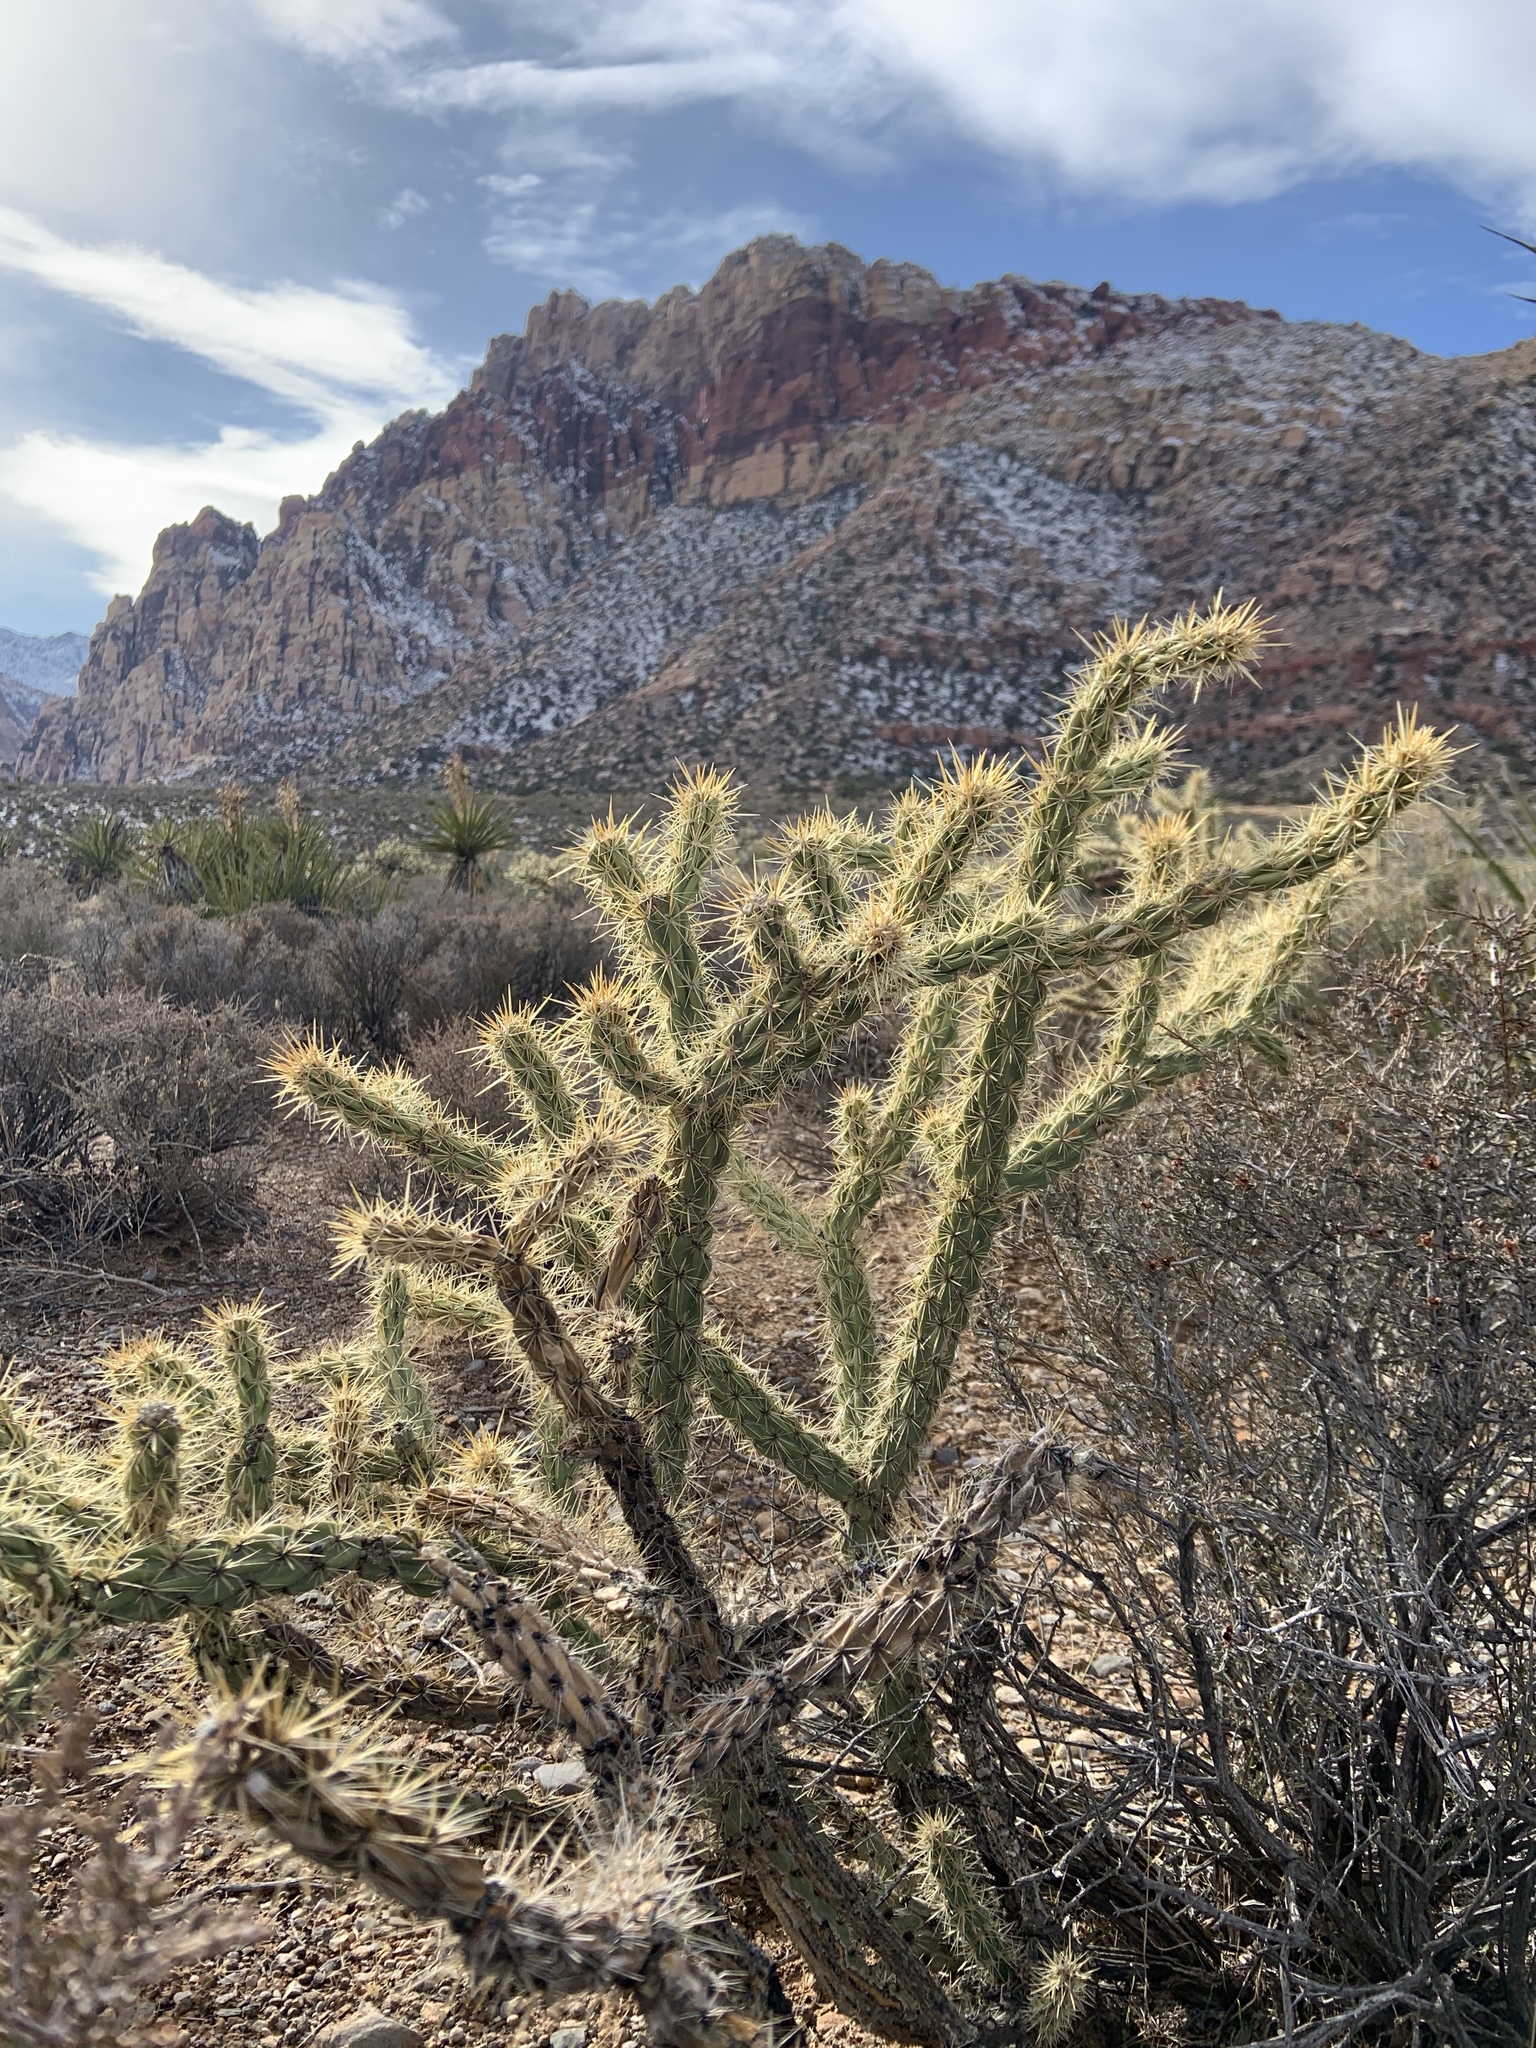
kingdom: Plantae
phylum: Tracheophyta
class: Magnoliopsida
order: Caryophyllales
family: Cactaceae
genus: Cylindropuntia
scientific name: Cylindropuntia acanthocarpa
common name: Buckhorn cholla
